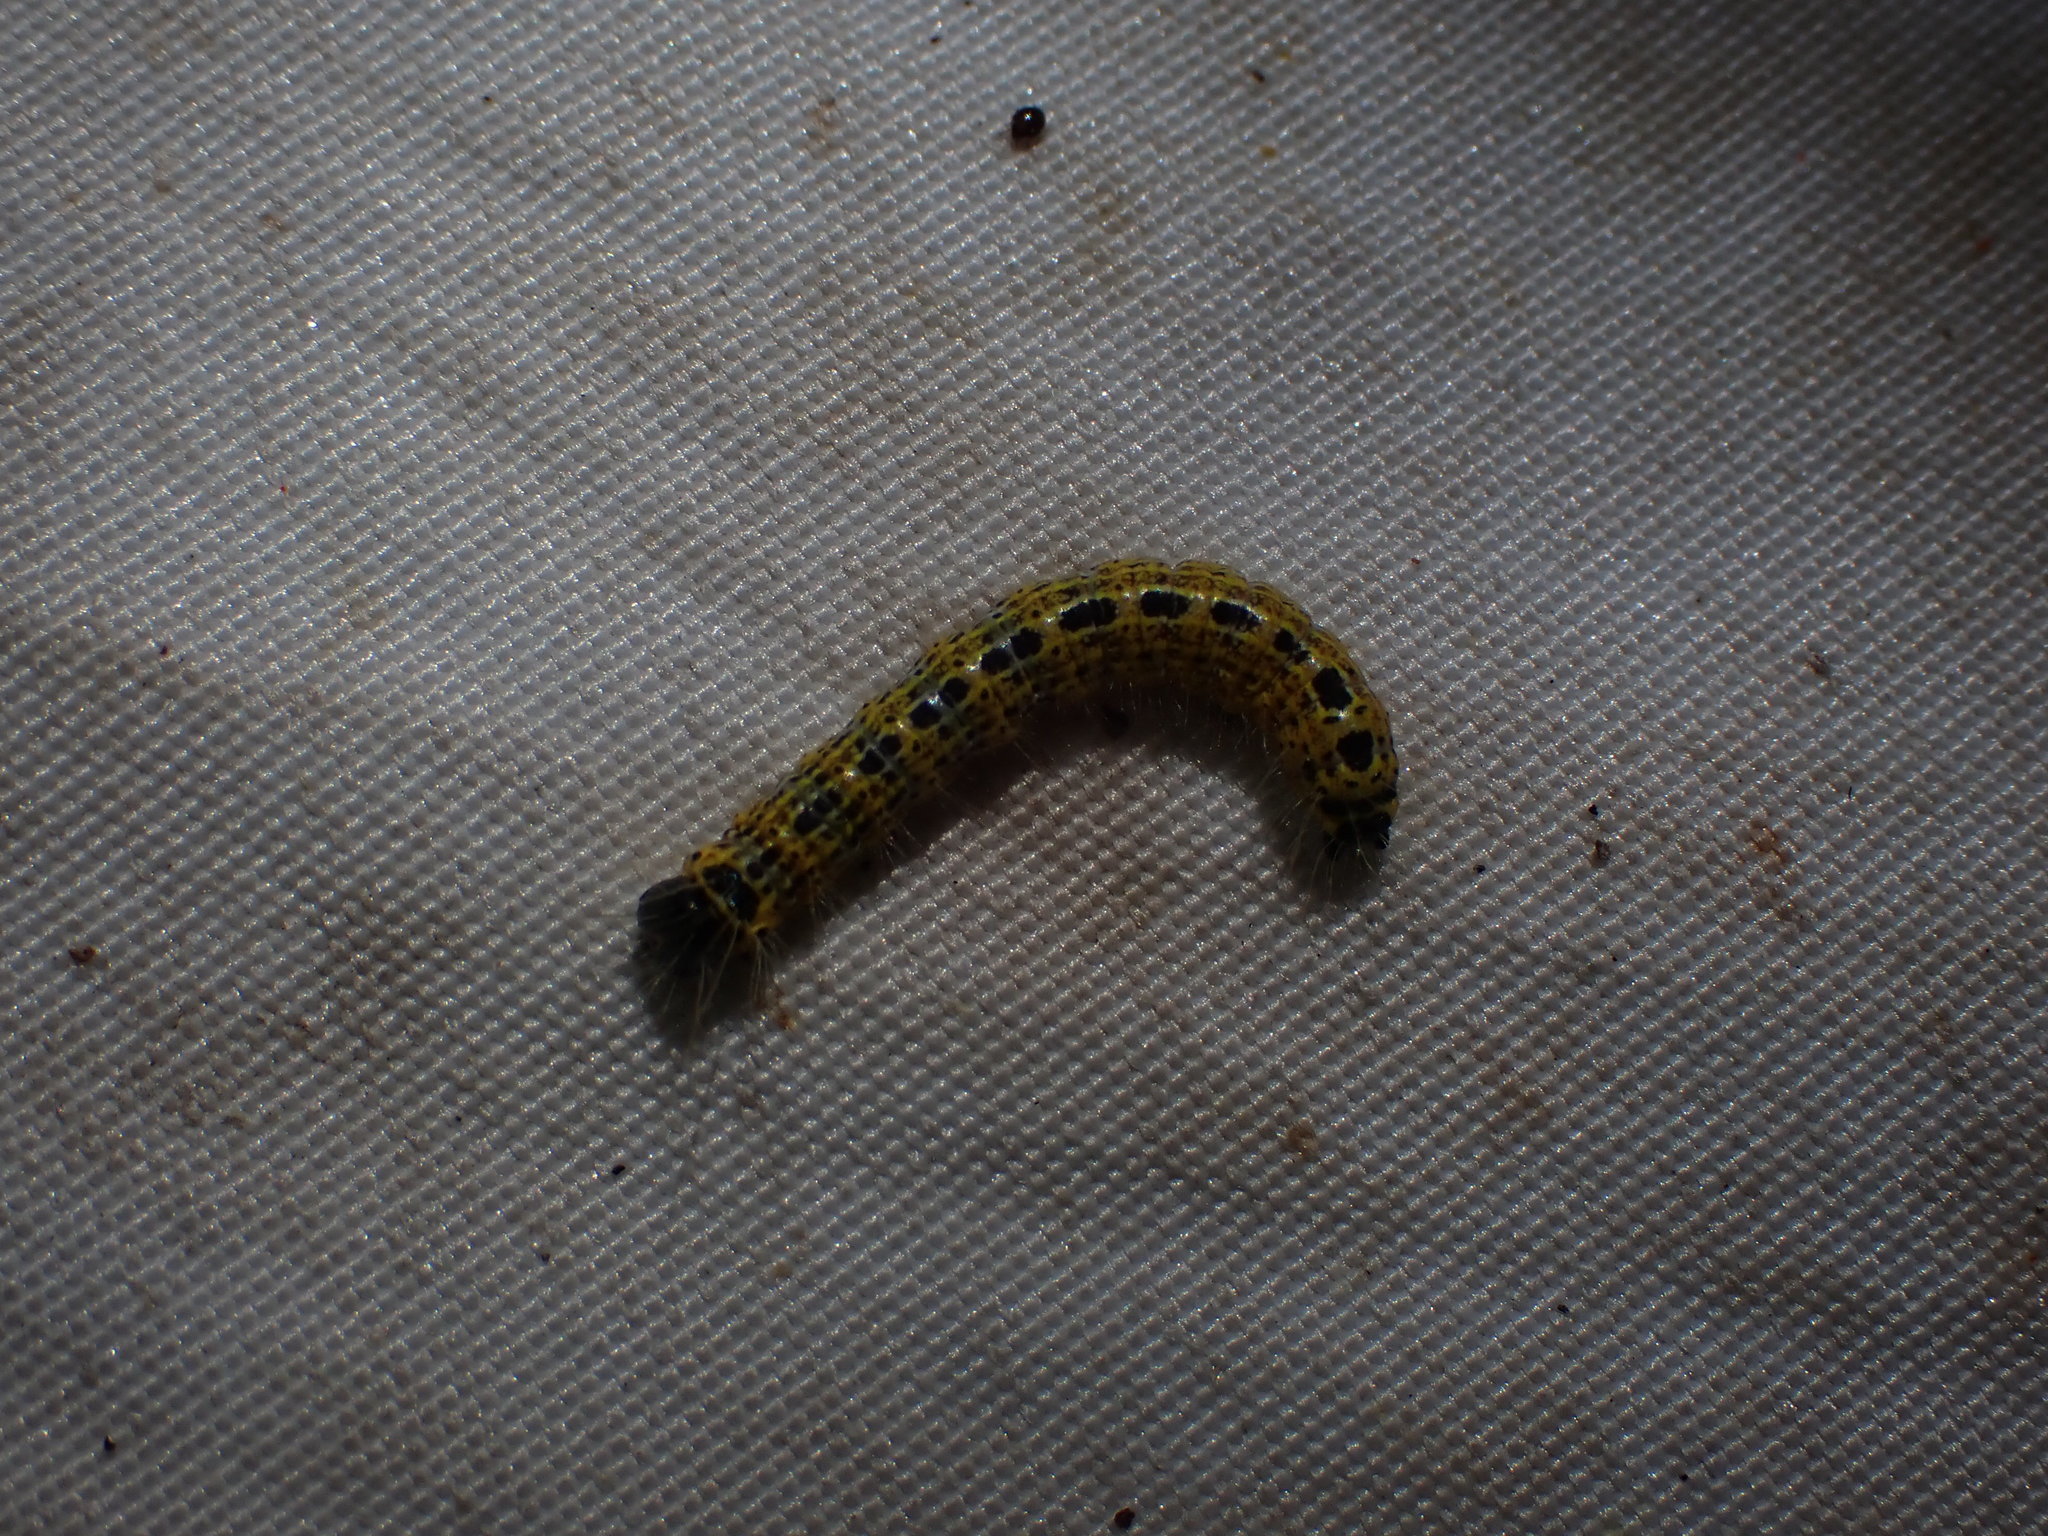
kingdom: Animalia
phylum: Arthropoda
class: Insecta
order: Lepidoptera
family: Notodontidae
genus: Phalera
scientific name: Phalera bucephala
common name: Buff-tip
